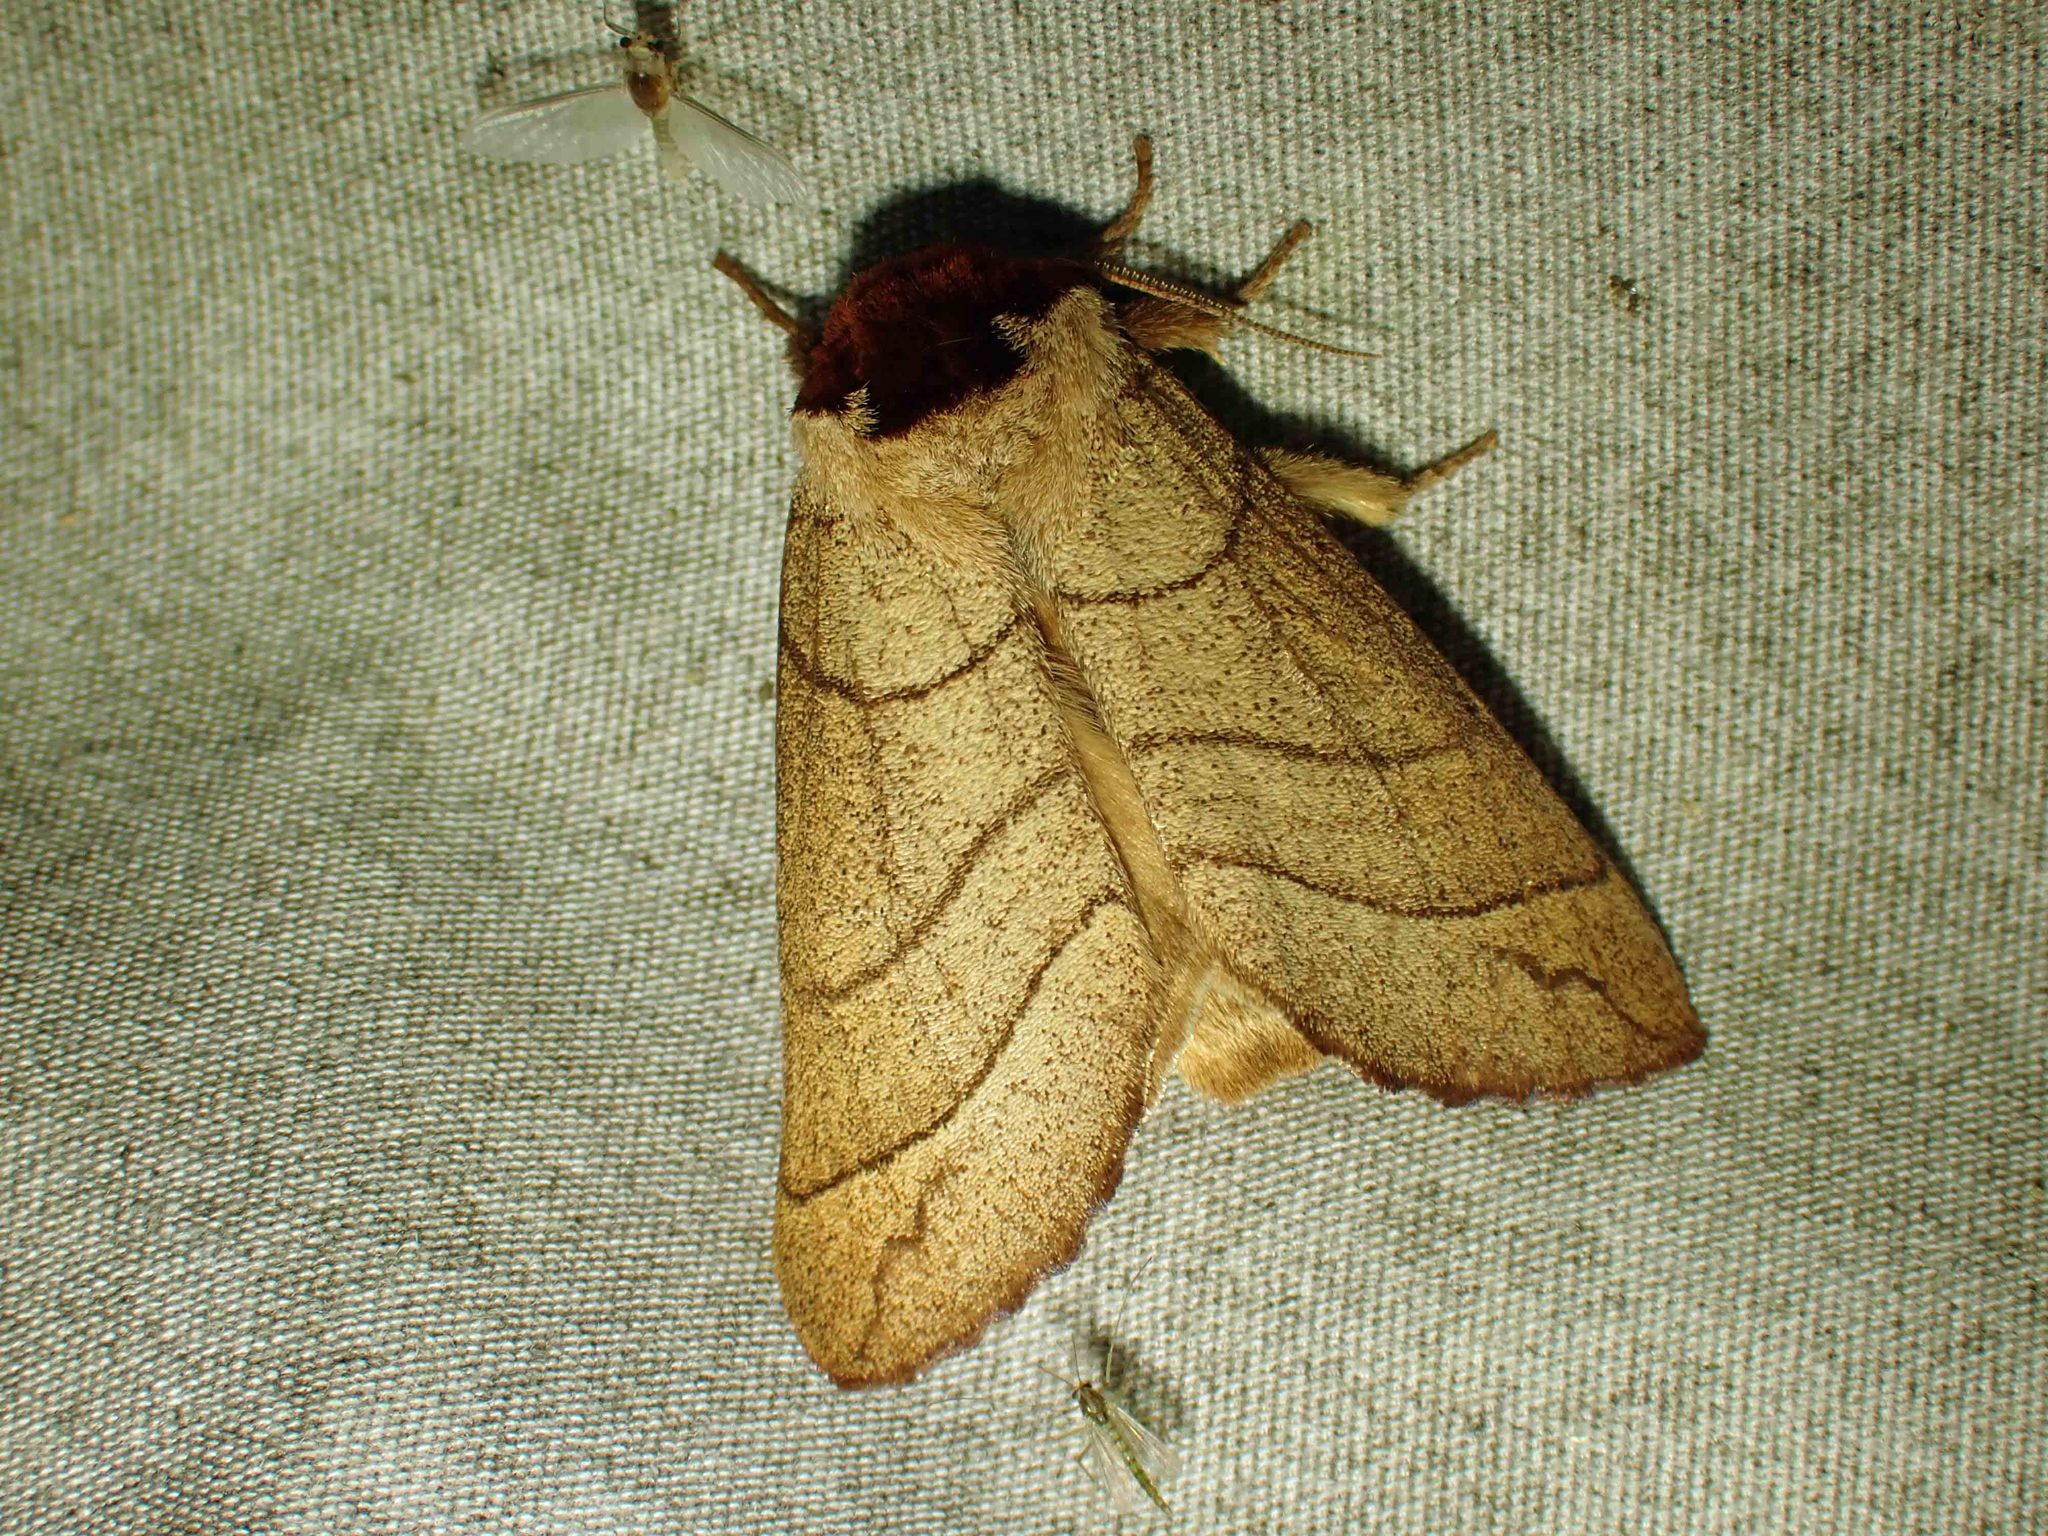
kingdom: Animalia
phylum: Arthropoda
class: Insecta
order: Lepidoptera
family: Notodontidae
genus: Datana
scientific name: Datana ministra
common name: Yellow-necked caterpillar moth
